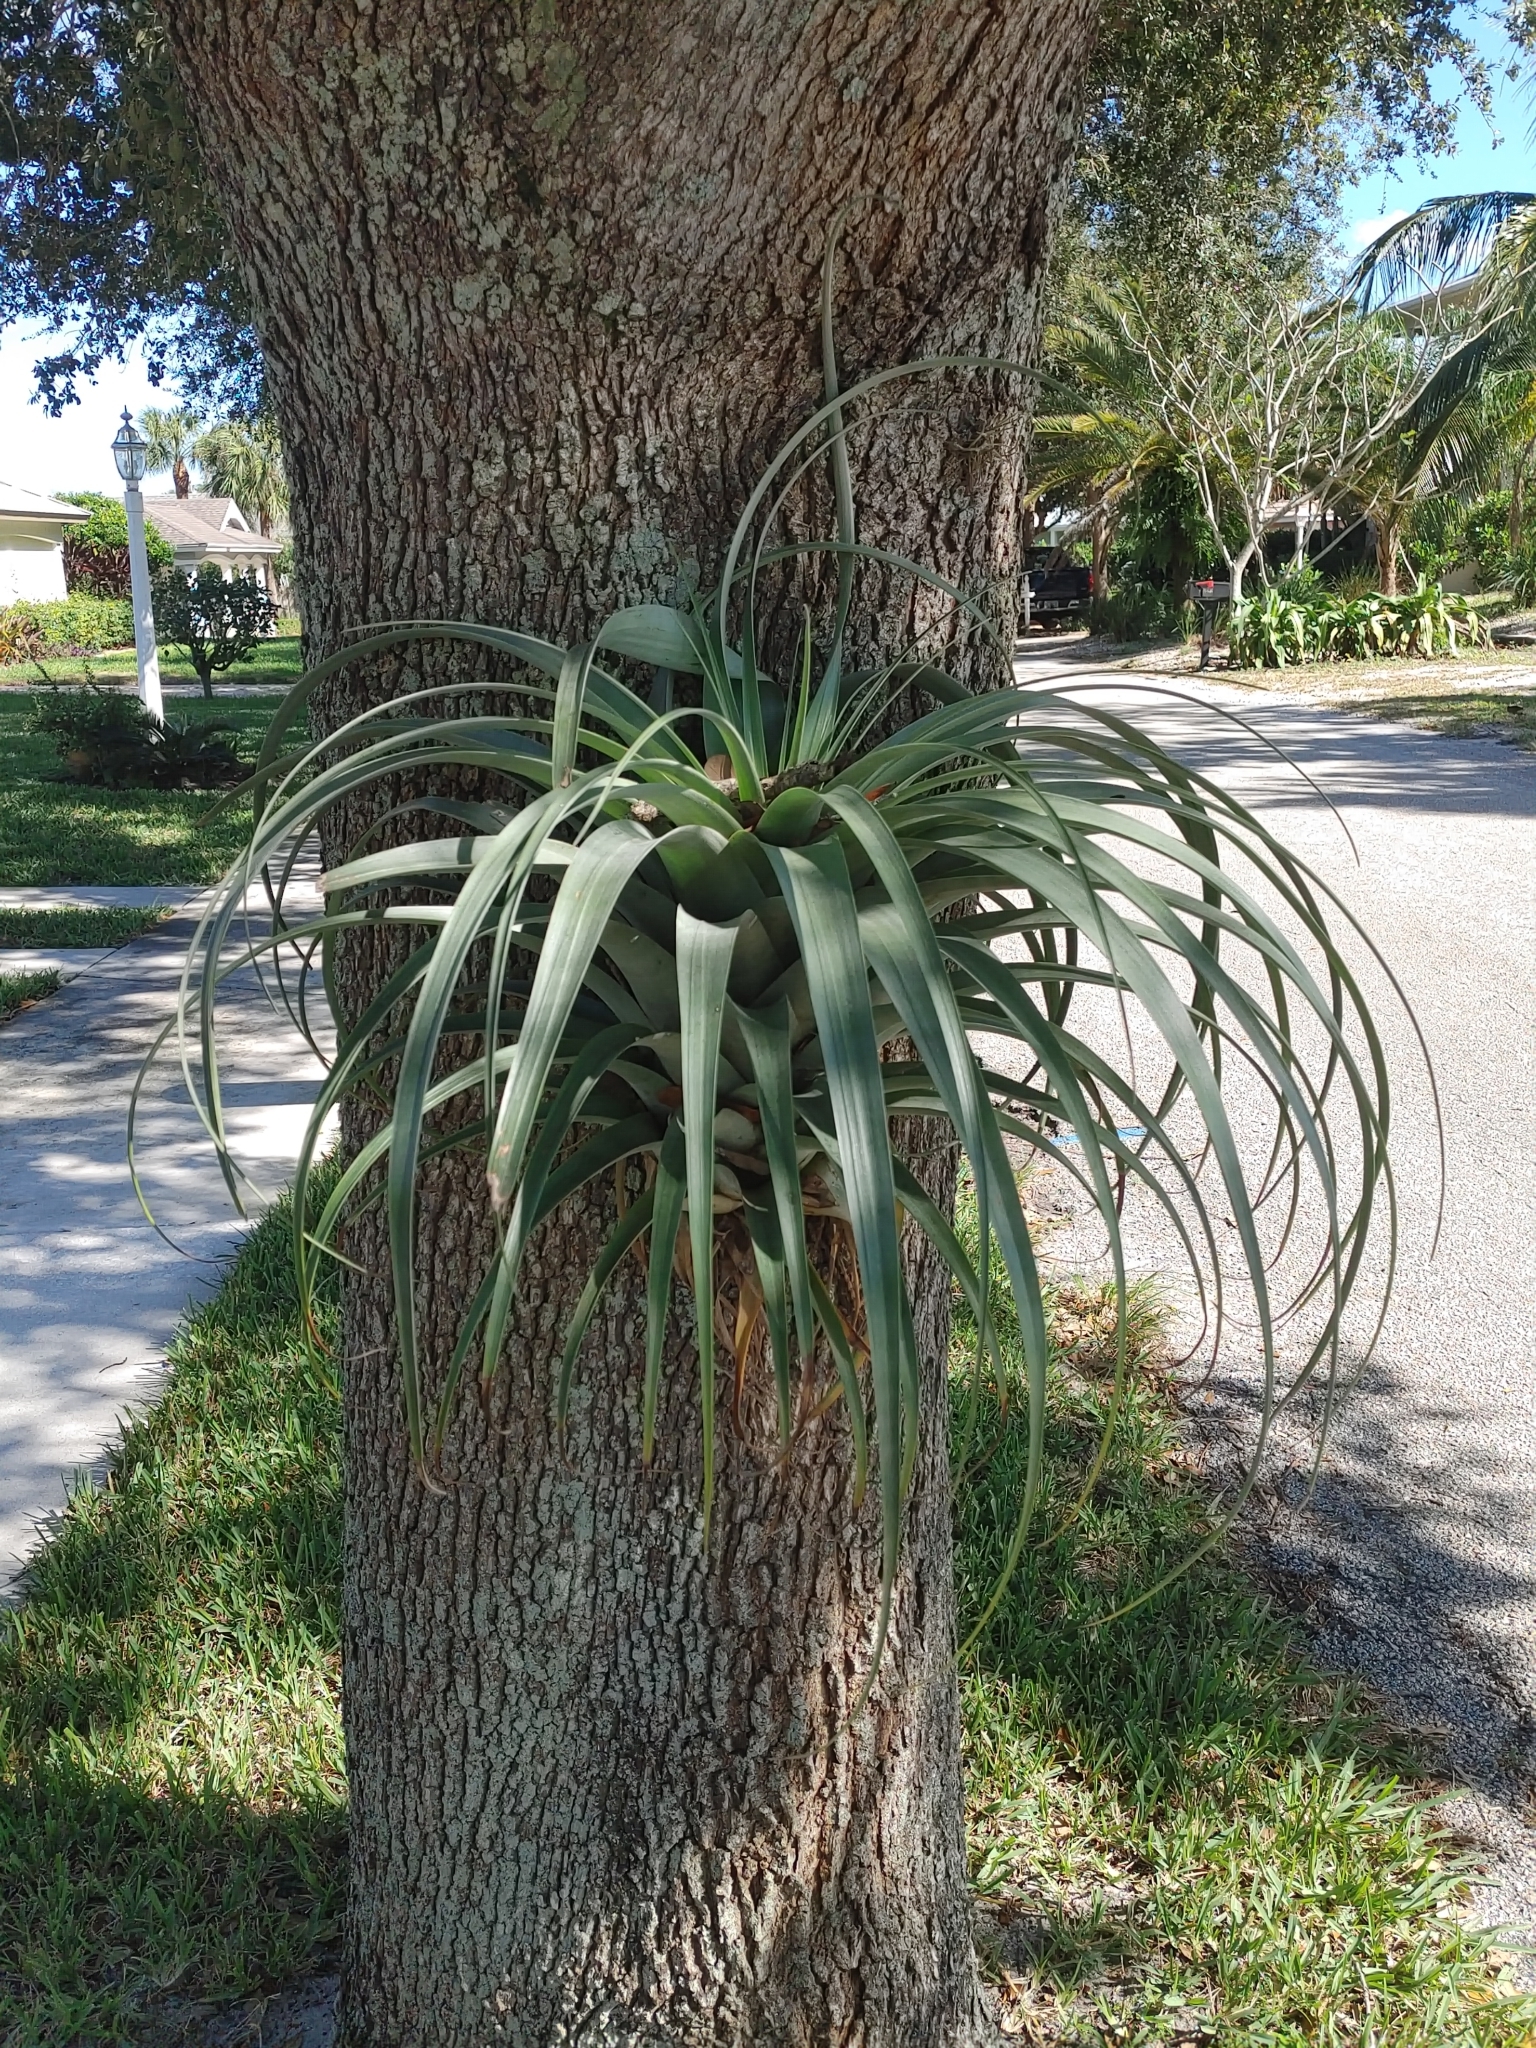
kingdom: Plantae
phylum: Tracheophyta
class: Liliopsida
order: Poales
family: Bromeliaceae
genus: Tillandsia
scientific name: Tillandsia utriculata
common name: Wild pine
